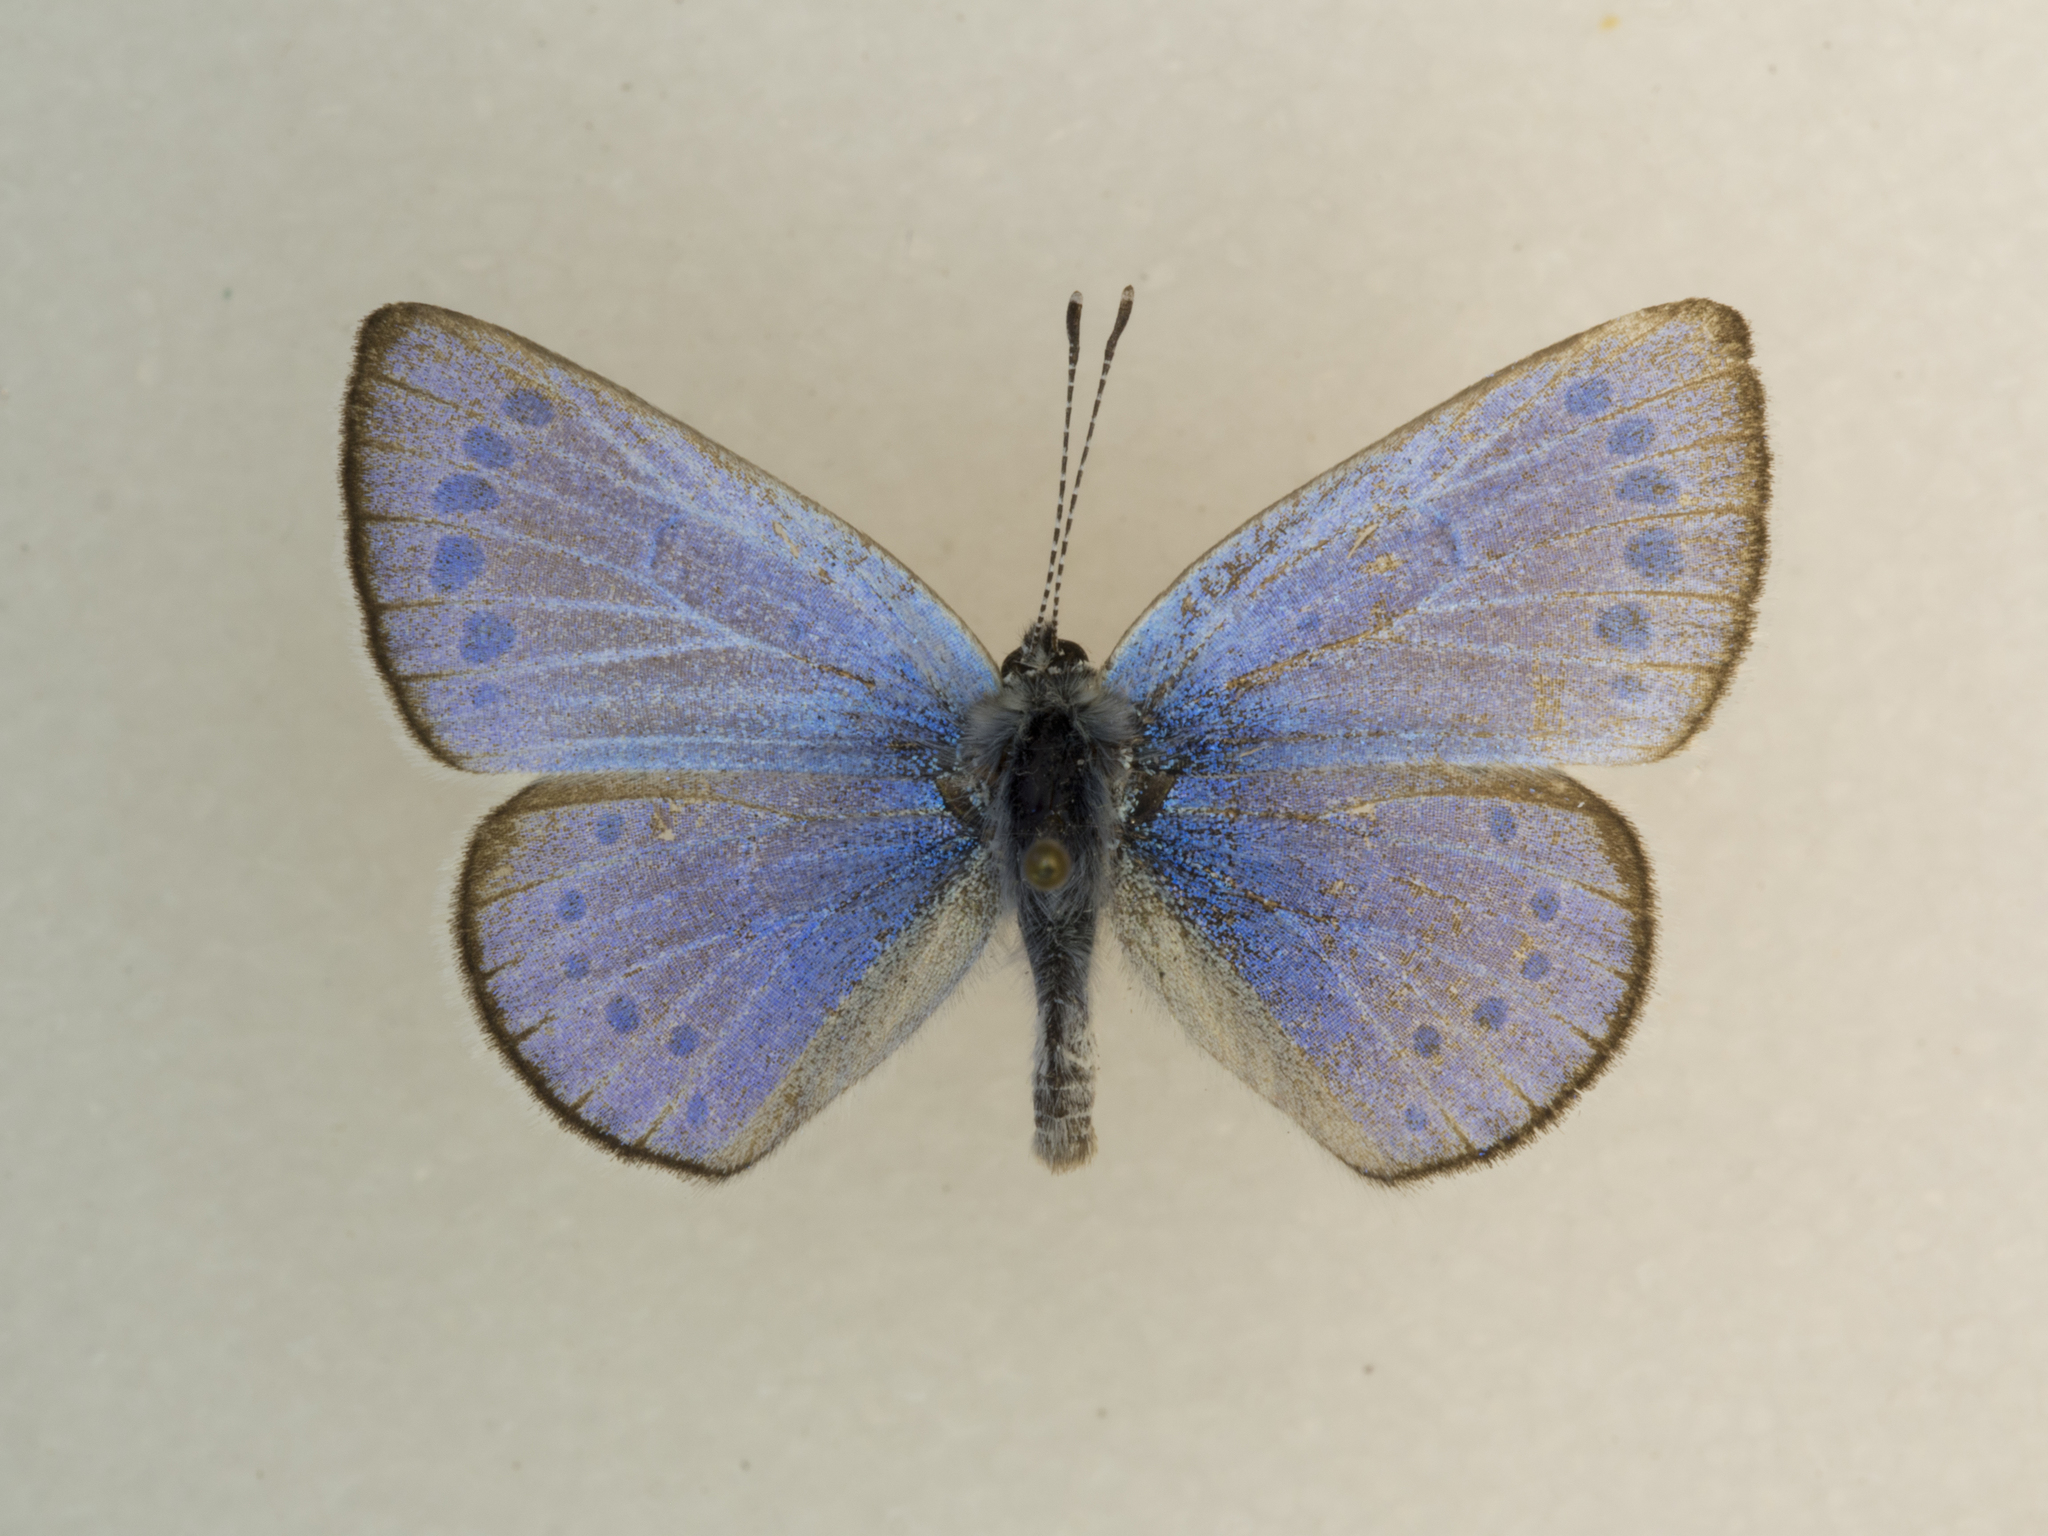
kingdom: Animalia
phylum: Arthropoda
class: Insecta
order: Lepidoptera
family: Lycaenidae
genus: Glaucopsyche
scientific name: Glaucopsyche lygdamus
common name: Silvery blue
